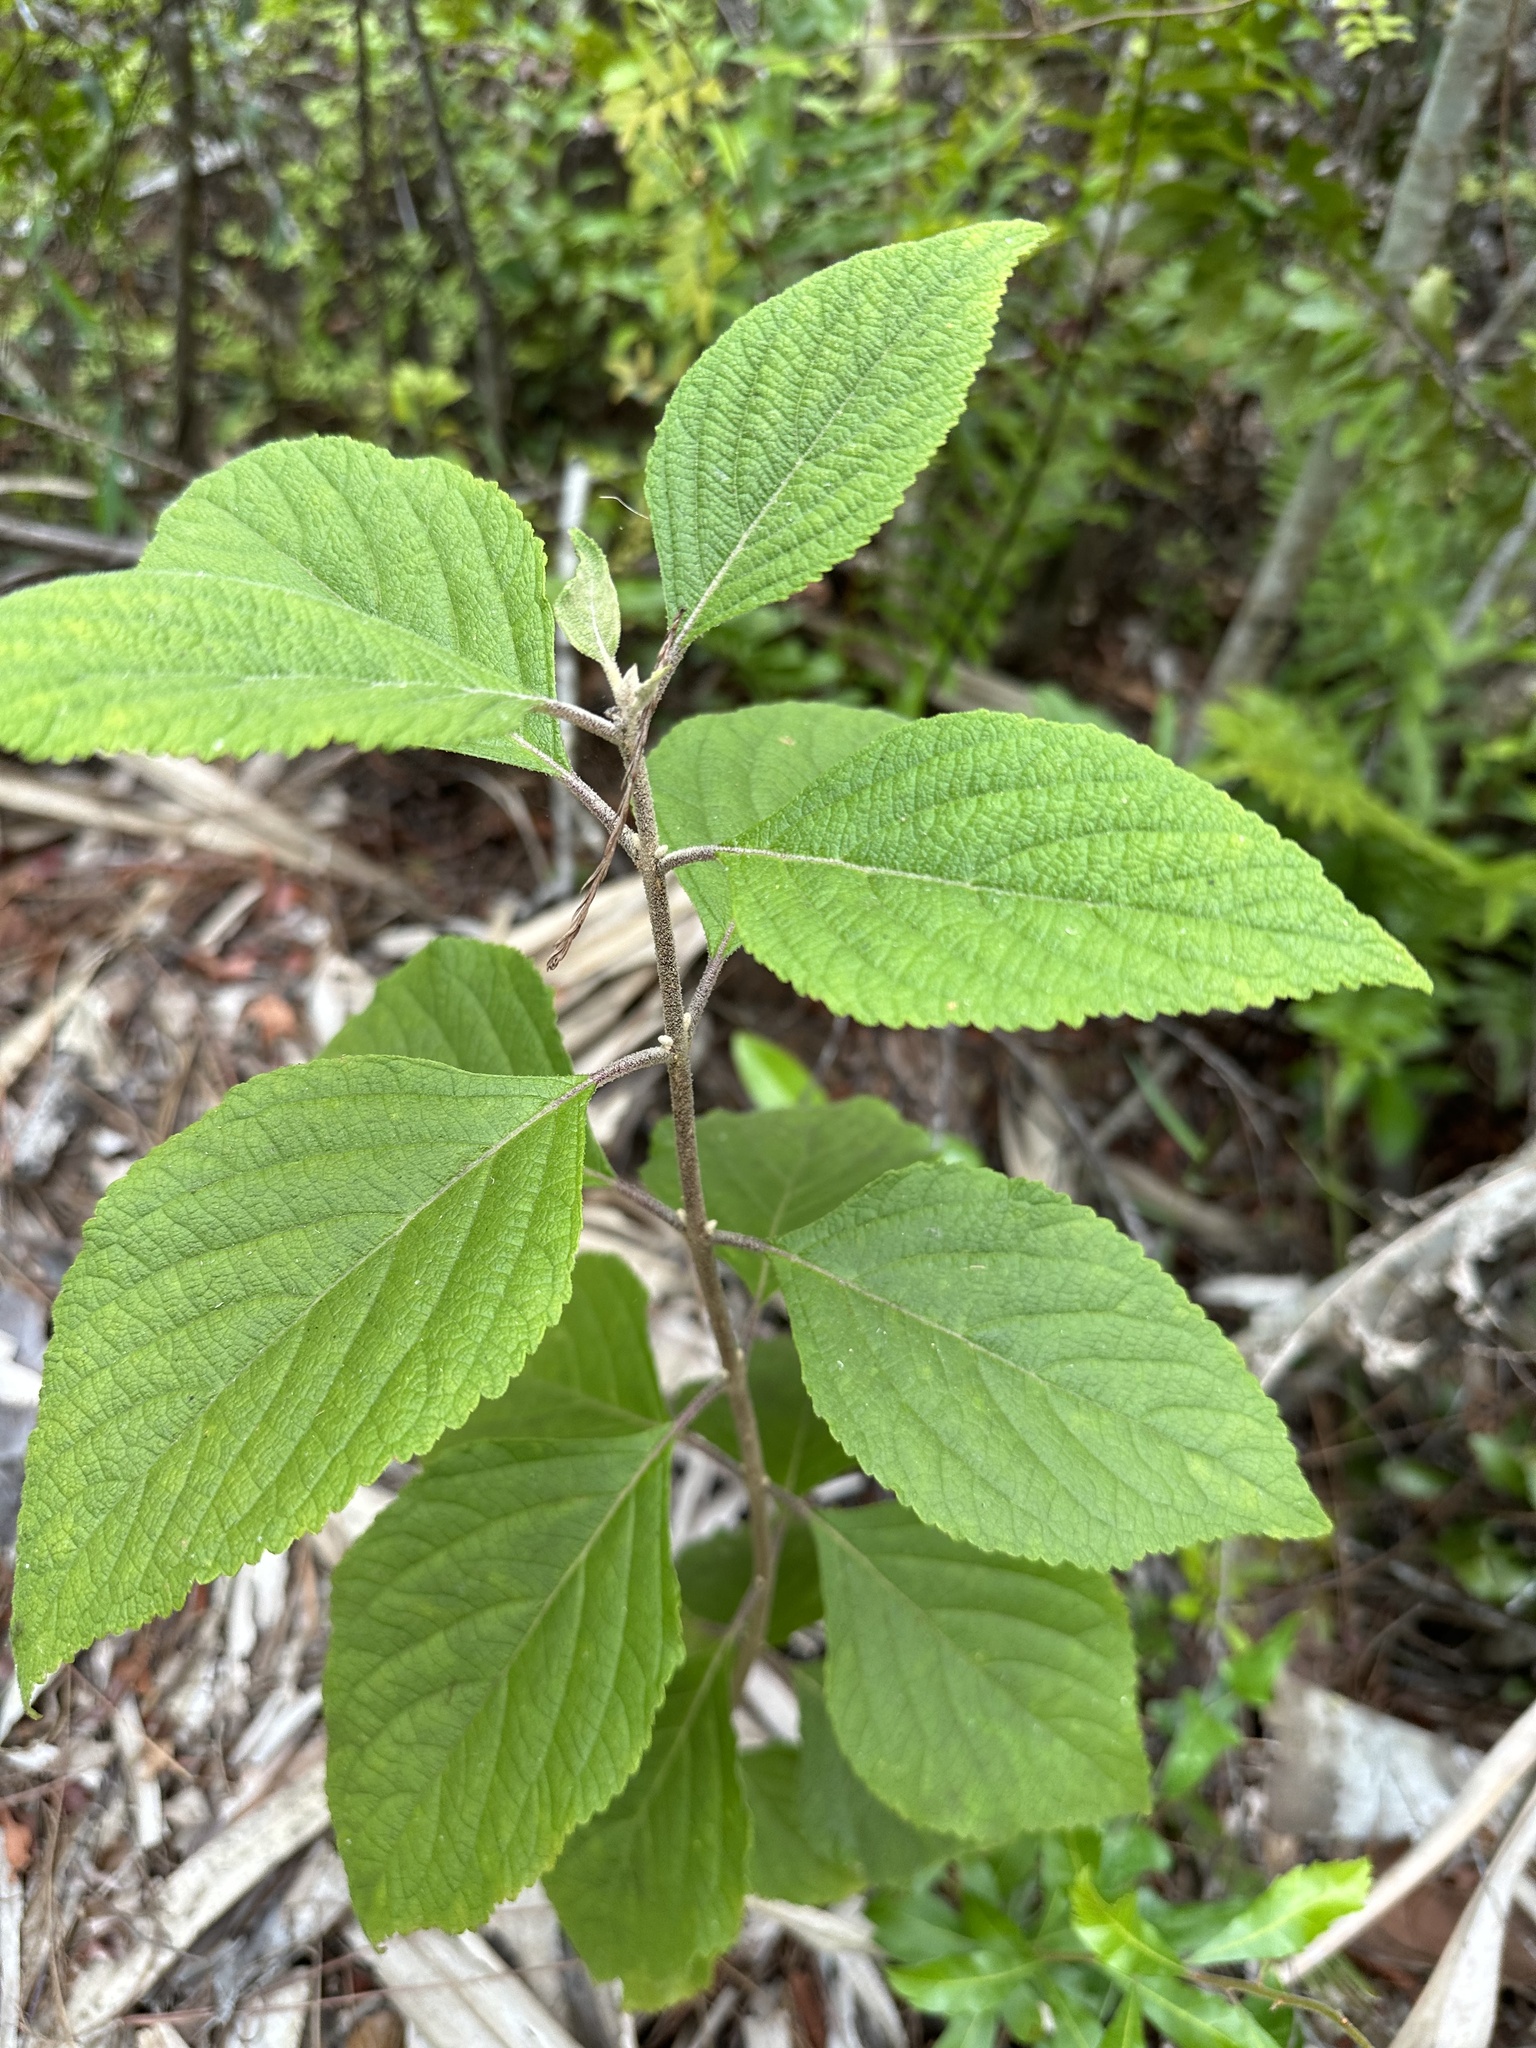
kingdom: Plantae
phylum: Tracheophyta
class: Magnoliopsida
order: Lamiales
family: Lamiaceae
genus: Callicarpa
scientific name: Callicarpa americana
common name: American beautyberry
